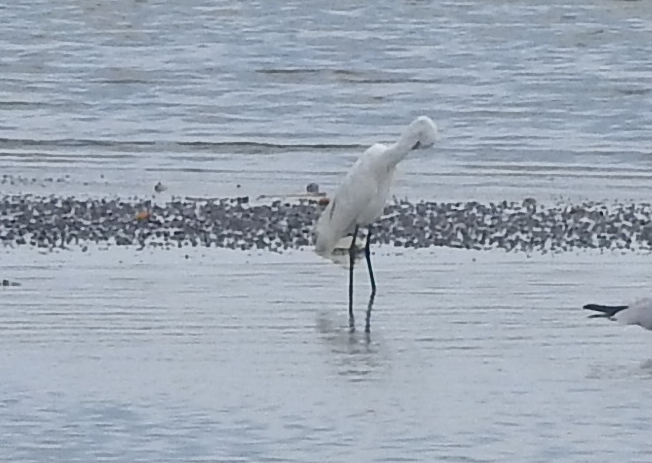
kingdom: Animalia
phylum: Chordata
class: Aves
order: Pelecaniformes
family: Ardeidae
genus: Egretta
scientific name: Egretta garzetta
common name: Little egret
